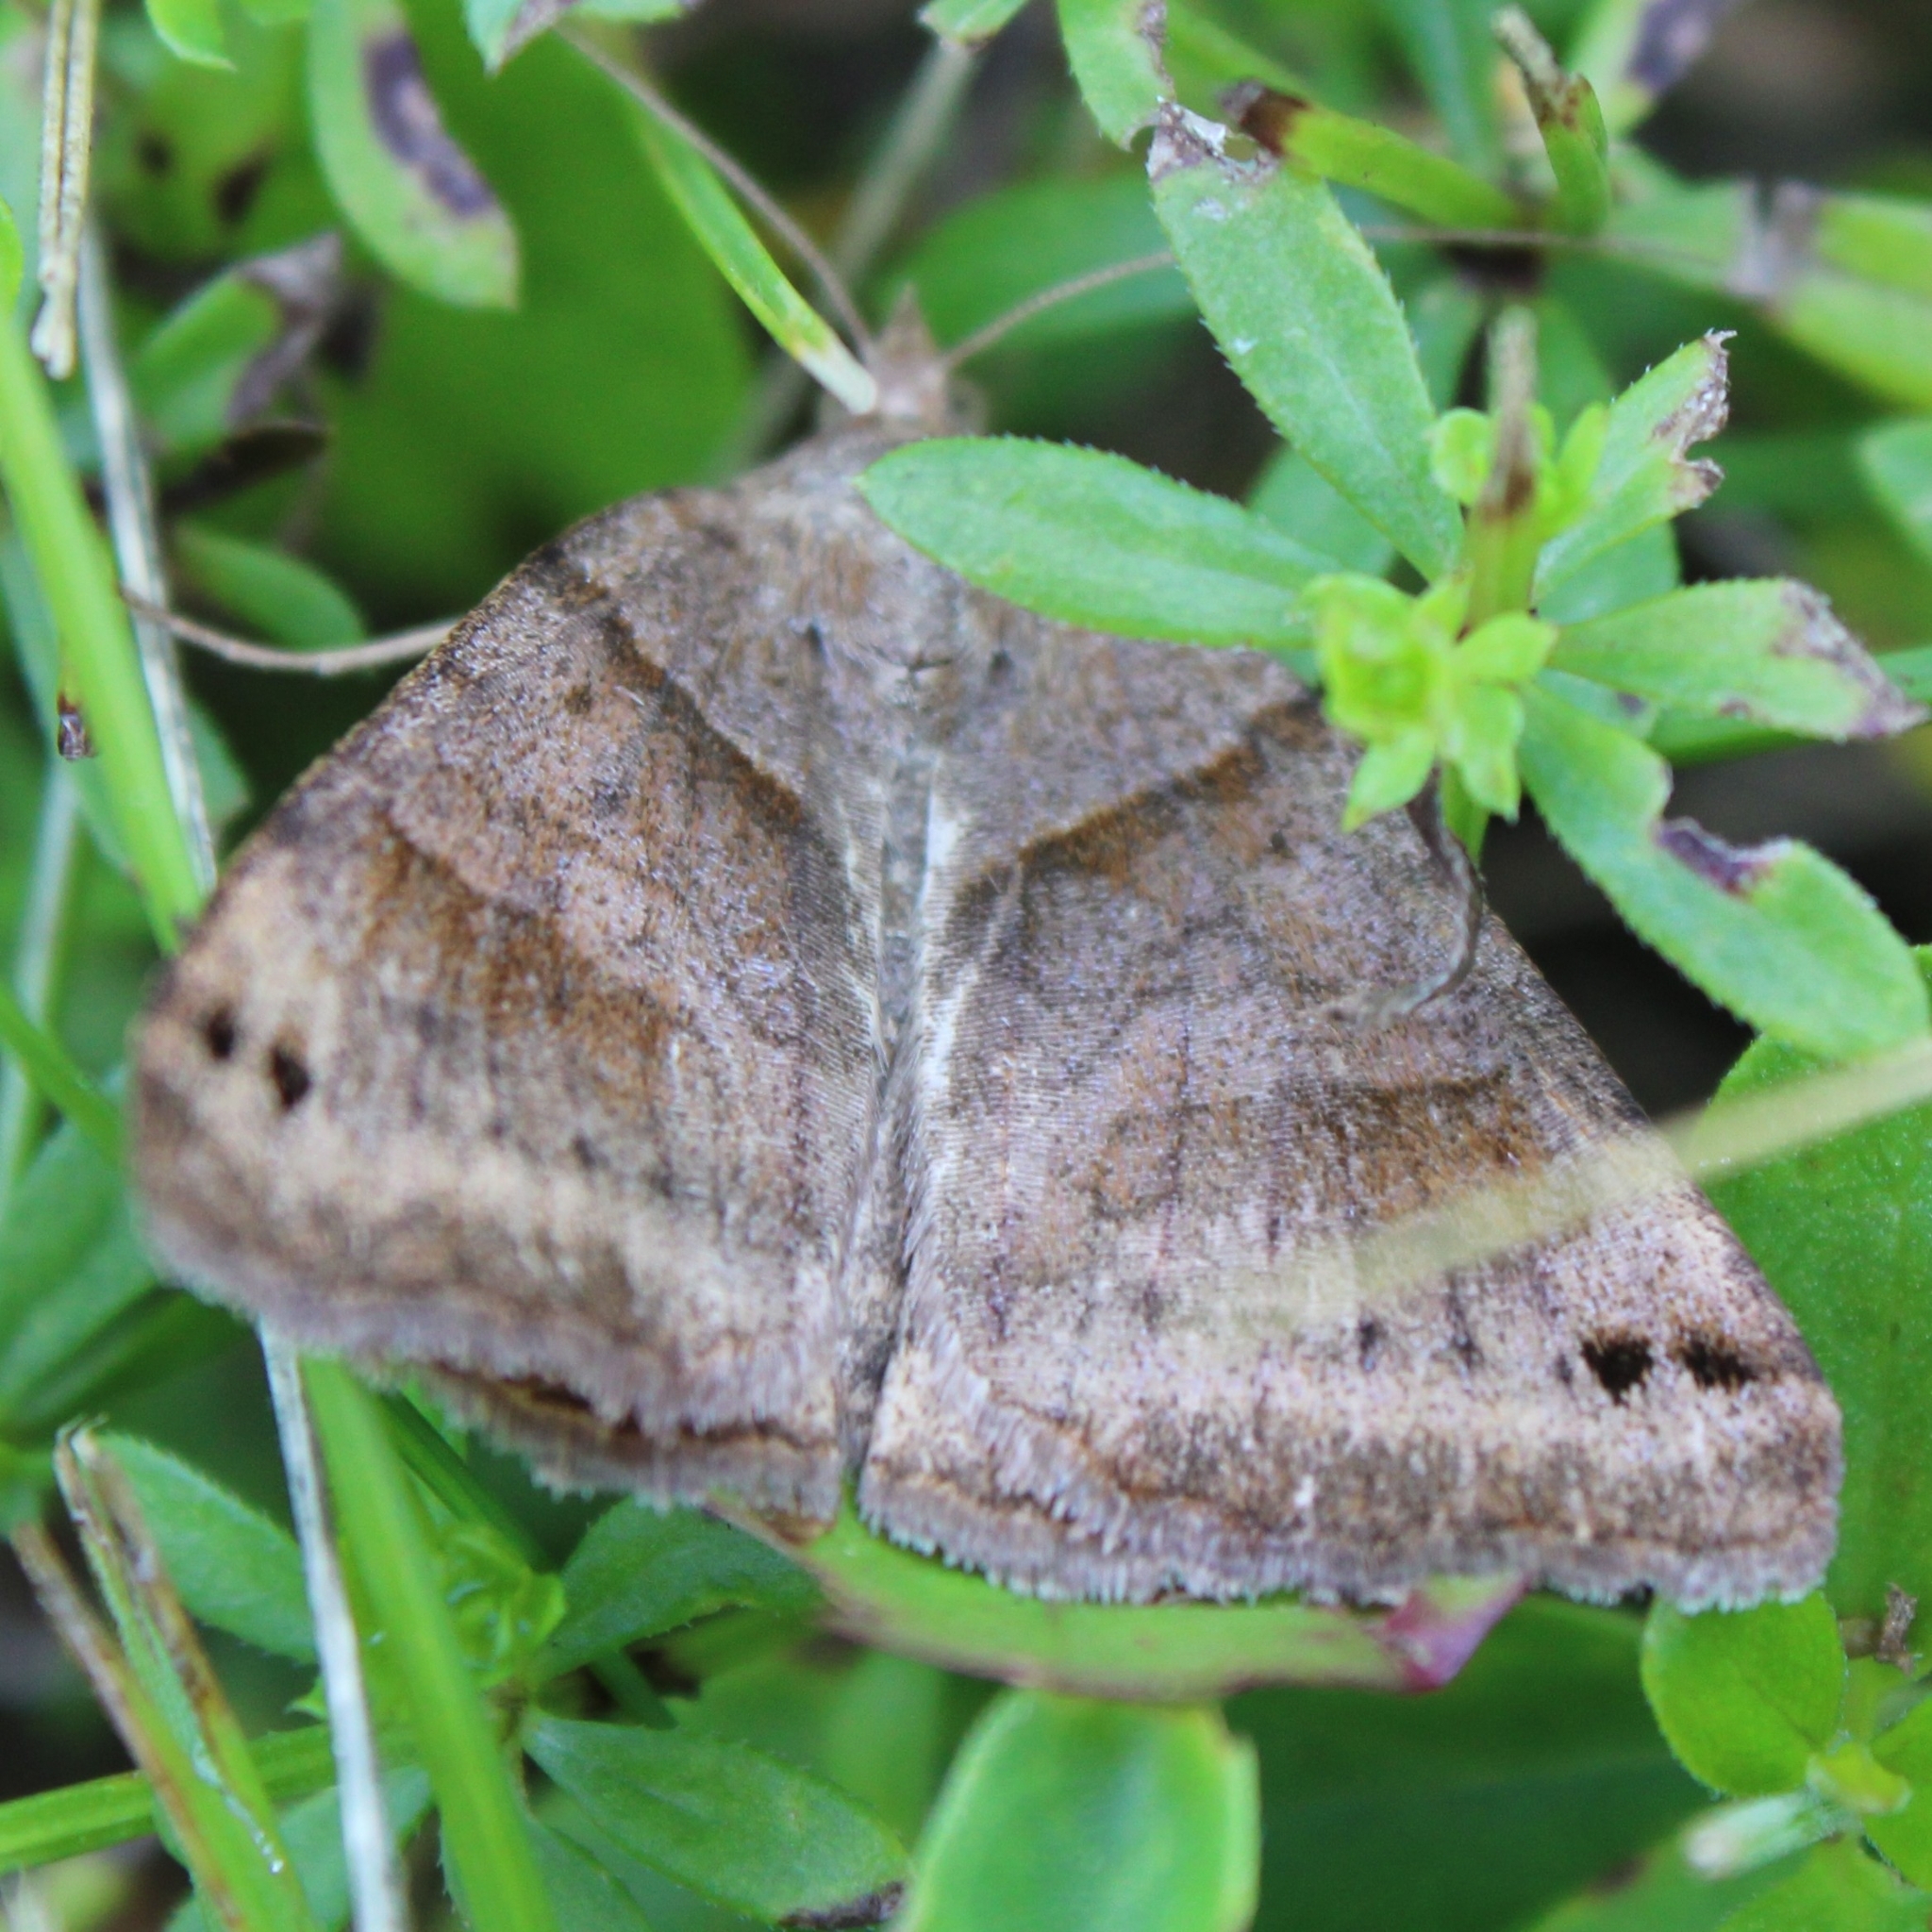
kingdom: Animalia
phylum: Arthropoda
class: Insecta
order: Lepidoptera
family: Erebidae
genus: Caenurgina
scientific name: Caenurgina crassiuscula
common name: Double-barred
